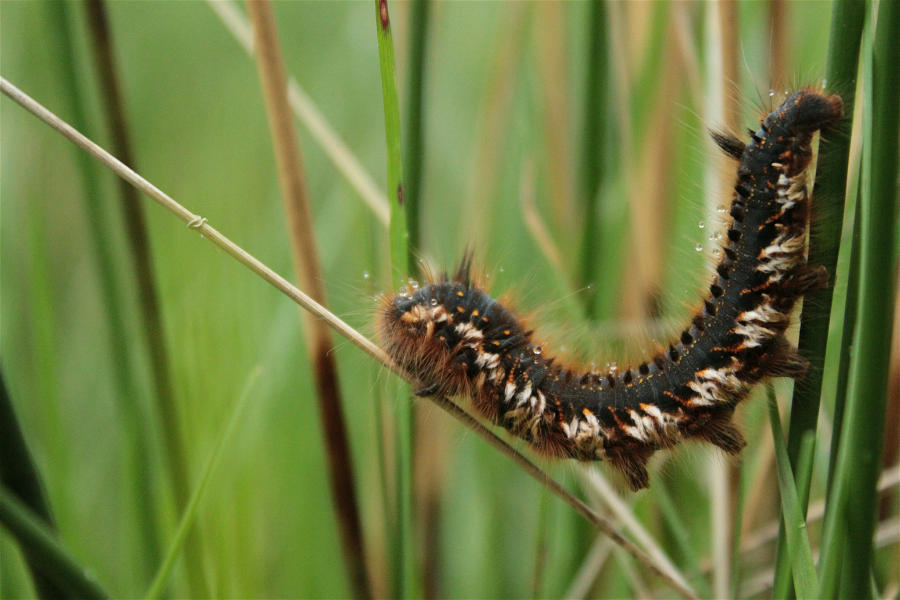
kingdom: Animalia
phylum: Arthropoda
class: Insecta
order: Lepidoptera
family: Lasiocampidae
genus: Euthrix
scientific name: Euthrix potatoria
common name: Drinker
